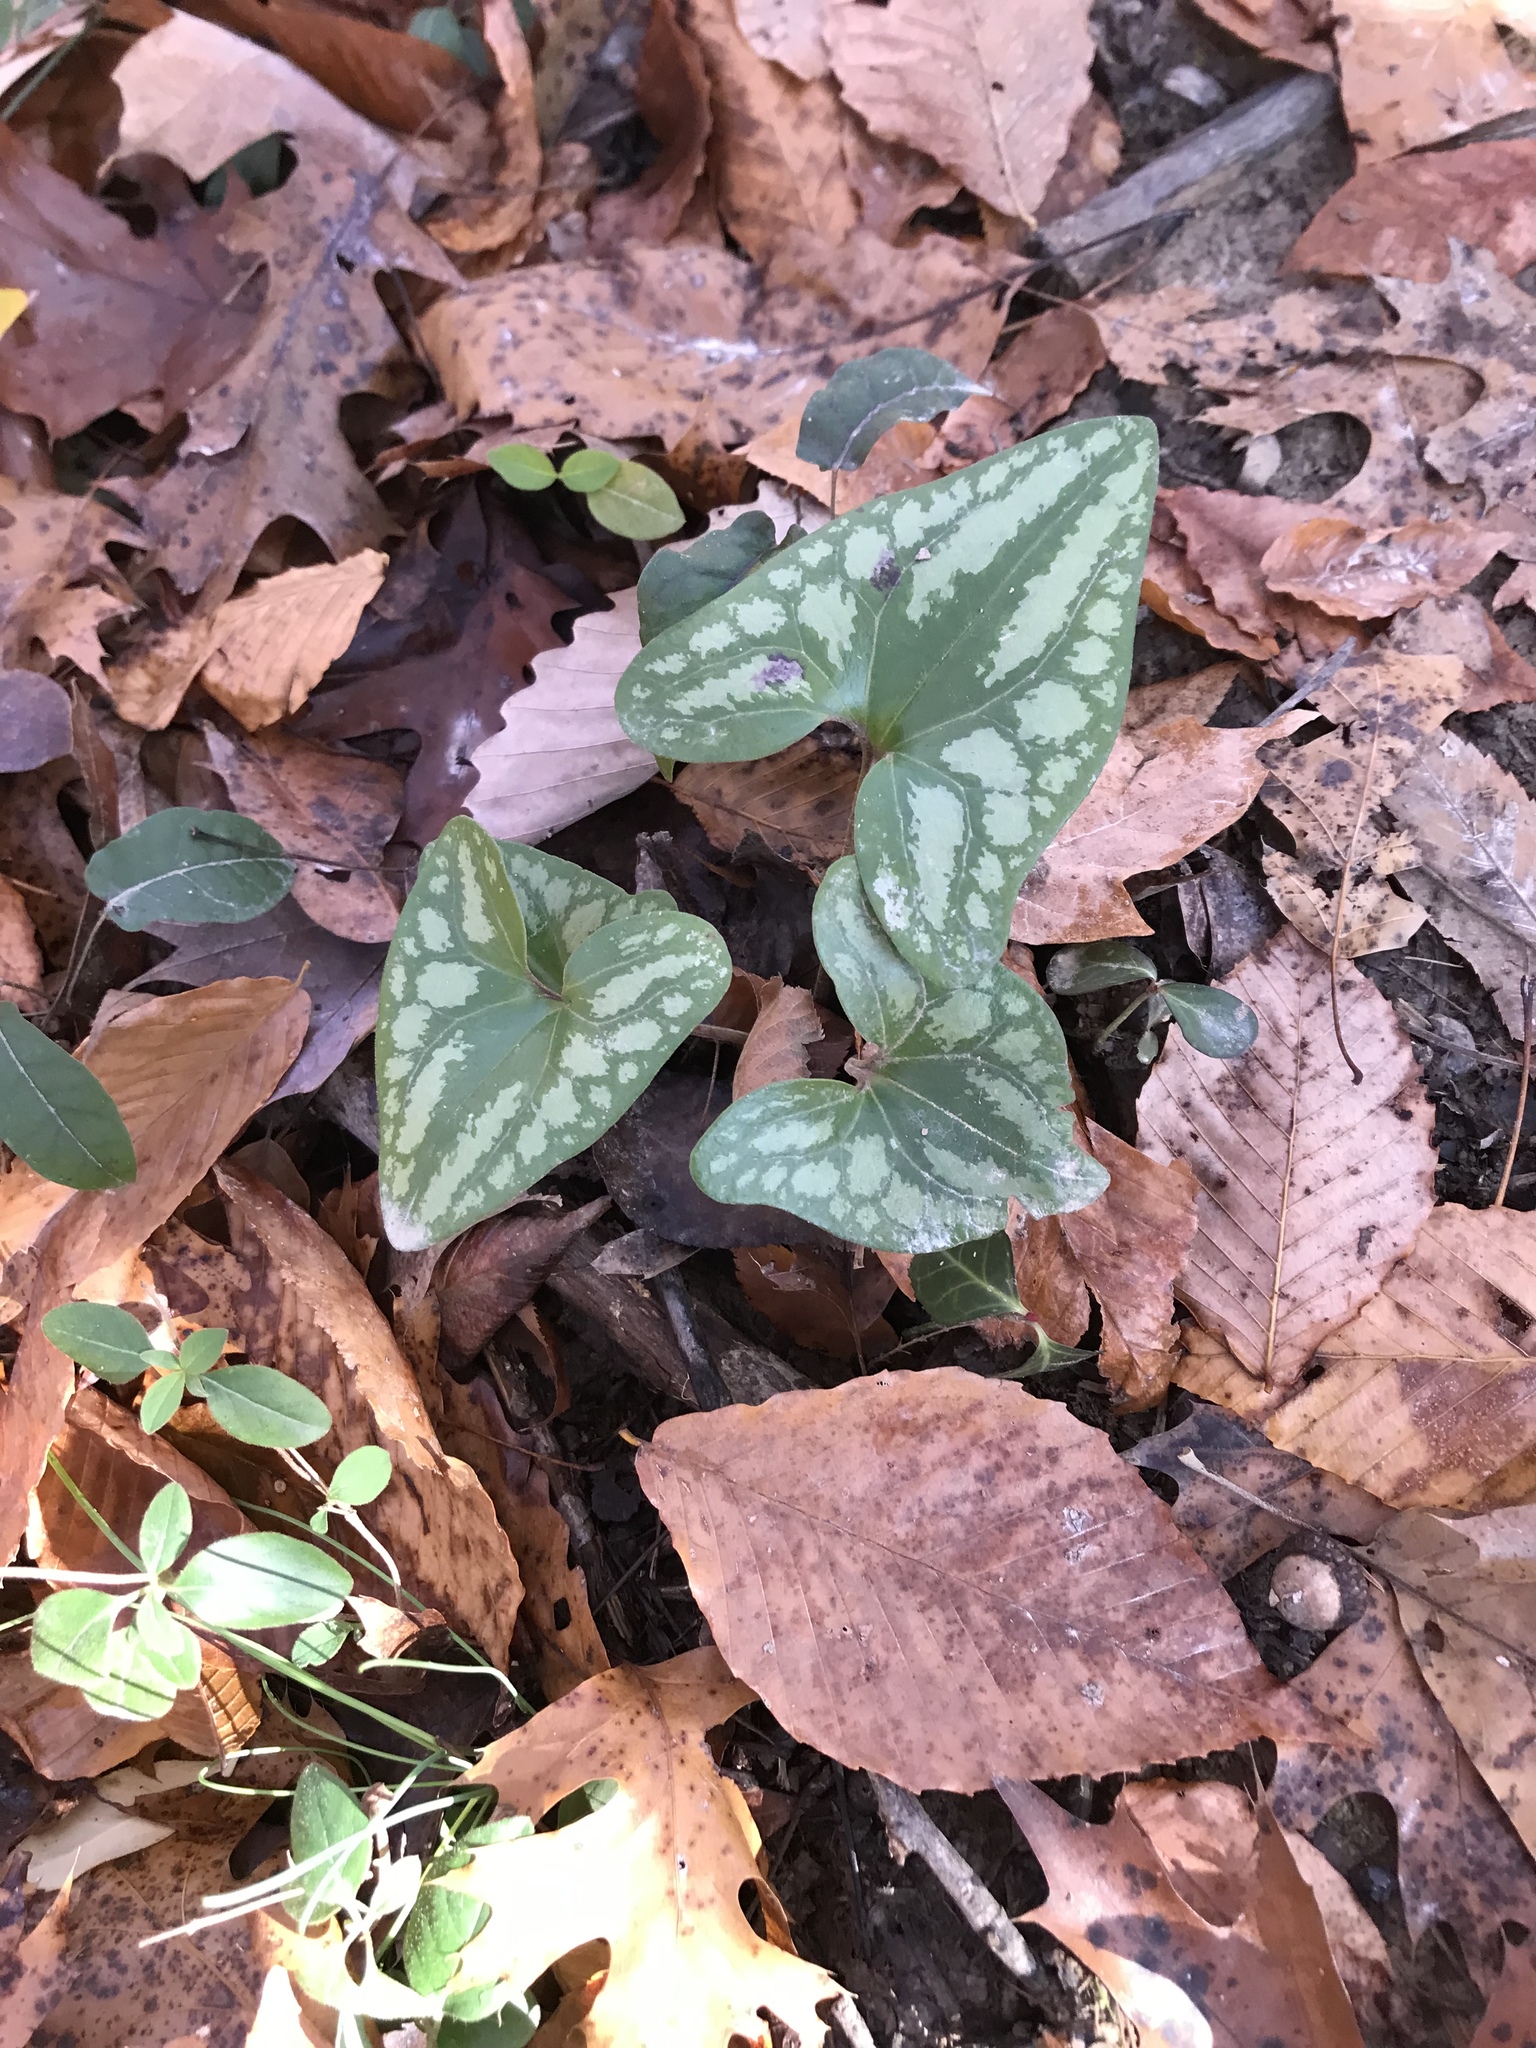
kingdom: Plantae
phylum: Tracheophyta
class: Magnoliopsida
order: Piperales
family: Aristolochiaceae
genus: Hexastylis
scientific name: Hexastylis arifolia
